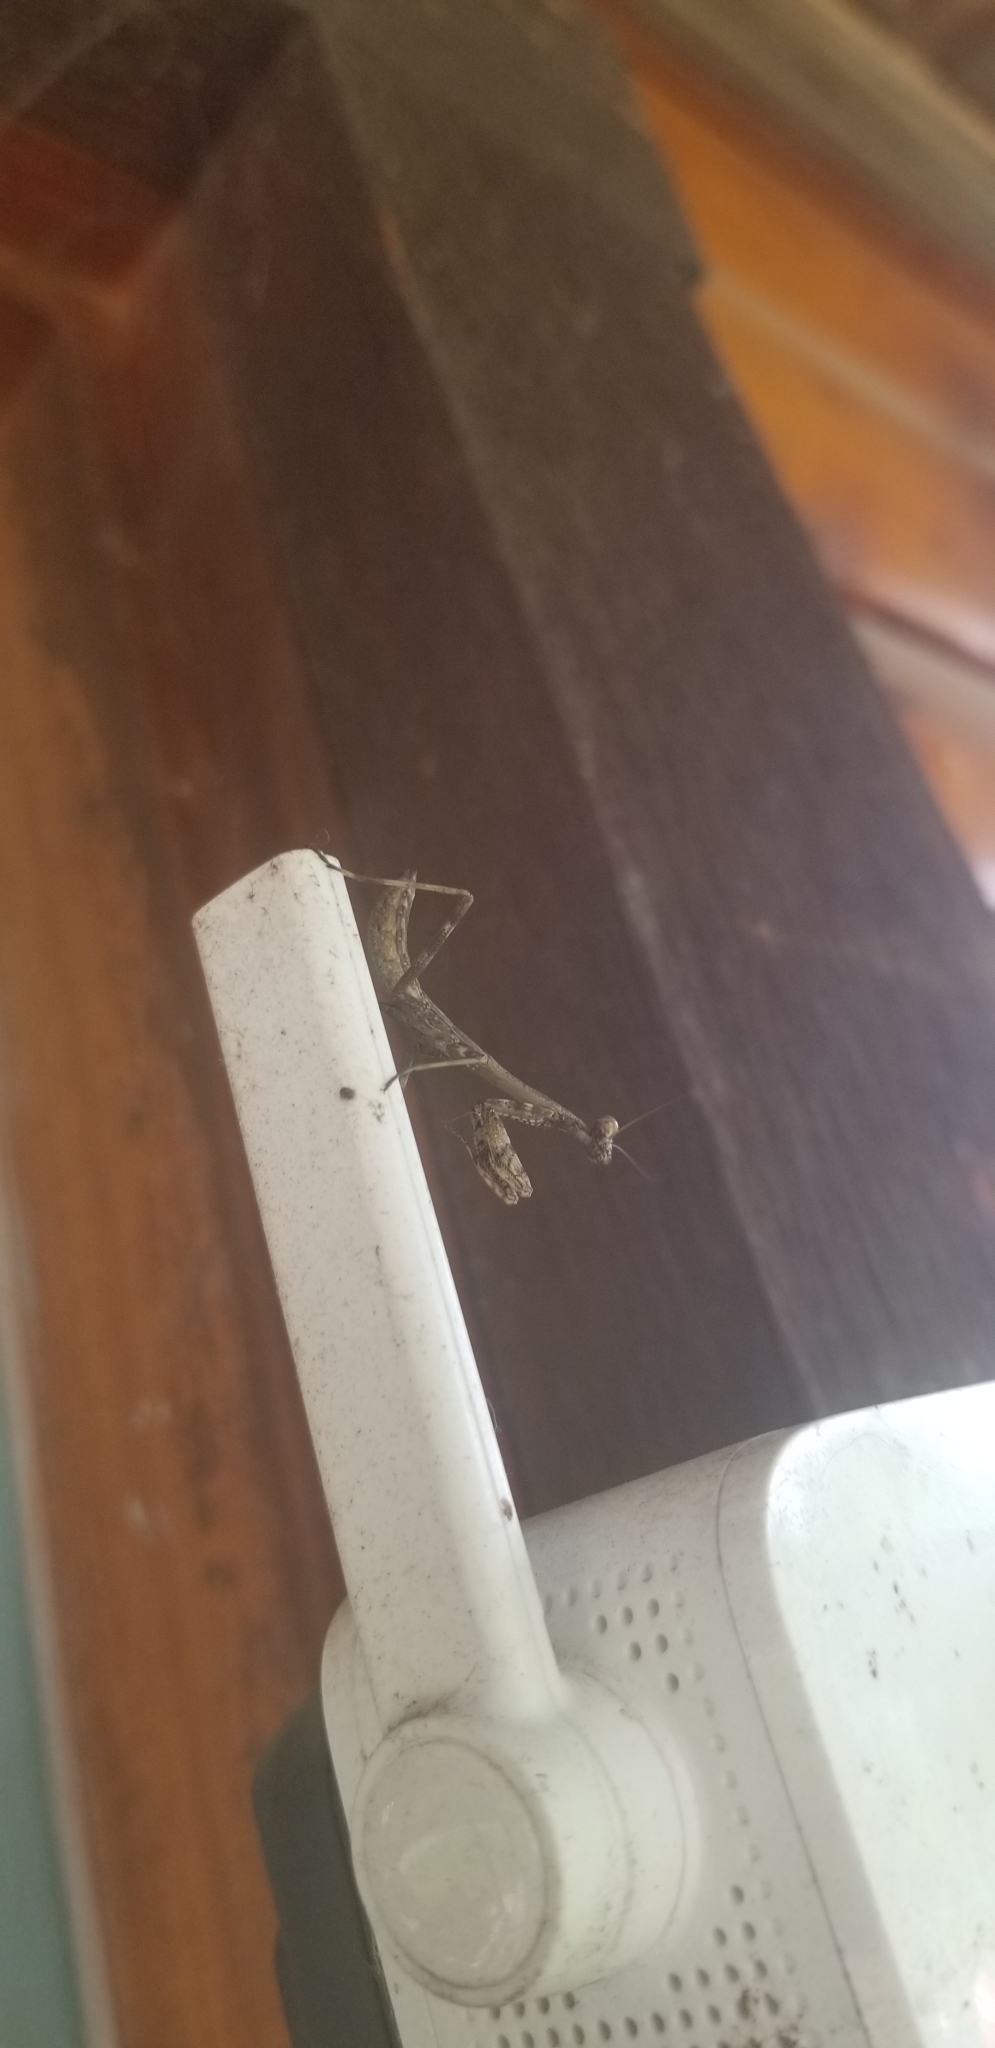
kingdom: Animalia
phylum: Arthropoda
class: Insecta
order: Mantodea
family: Mantidae
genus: Stagmomantis
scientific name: Stagmomantis carolina
